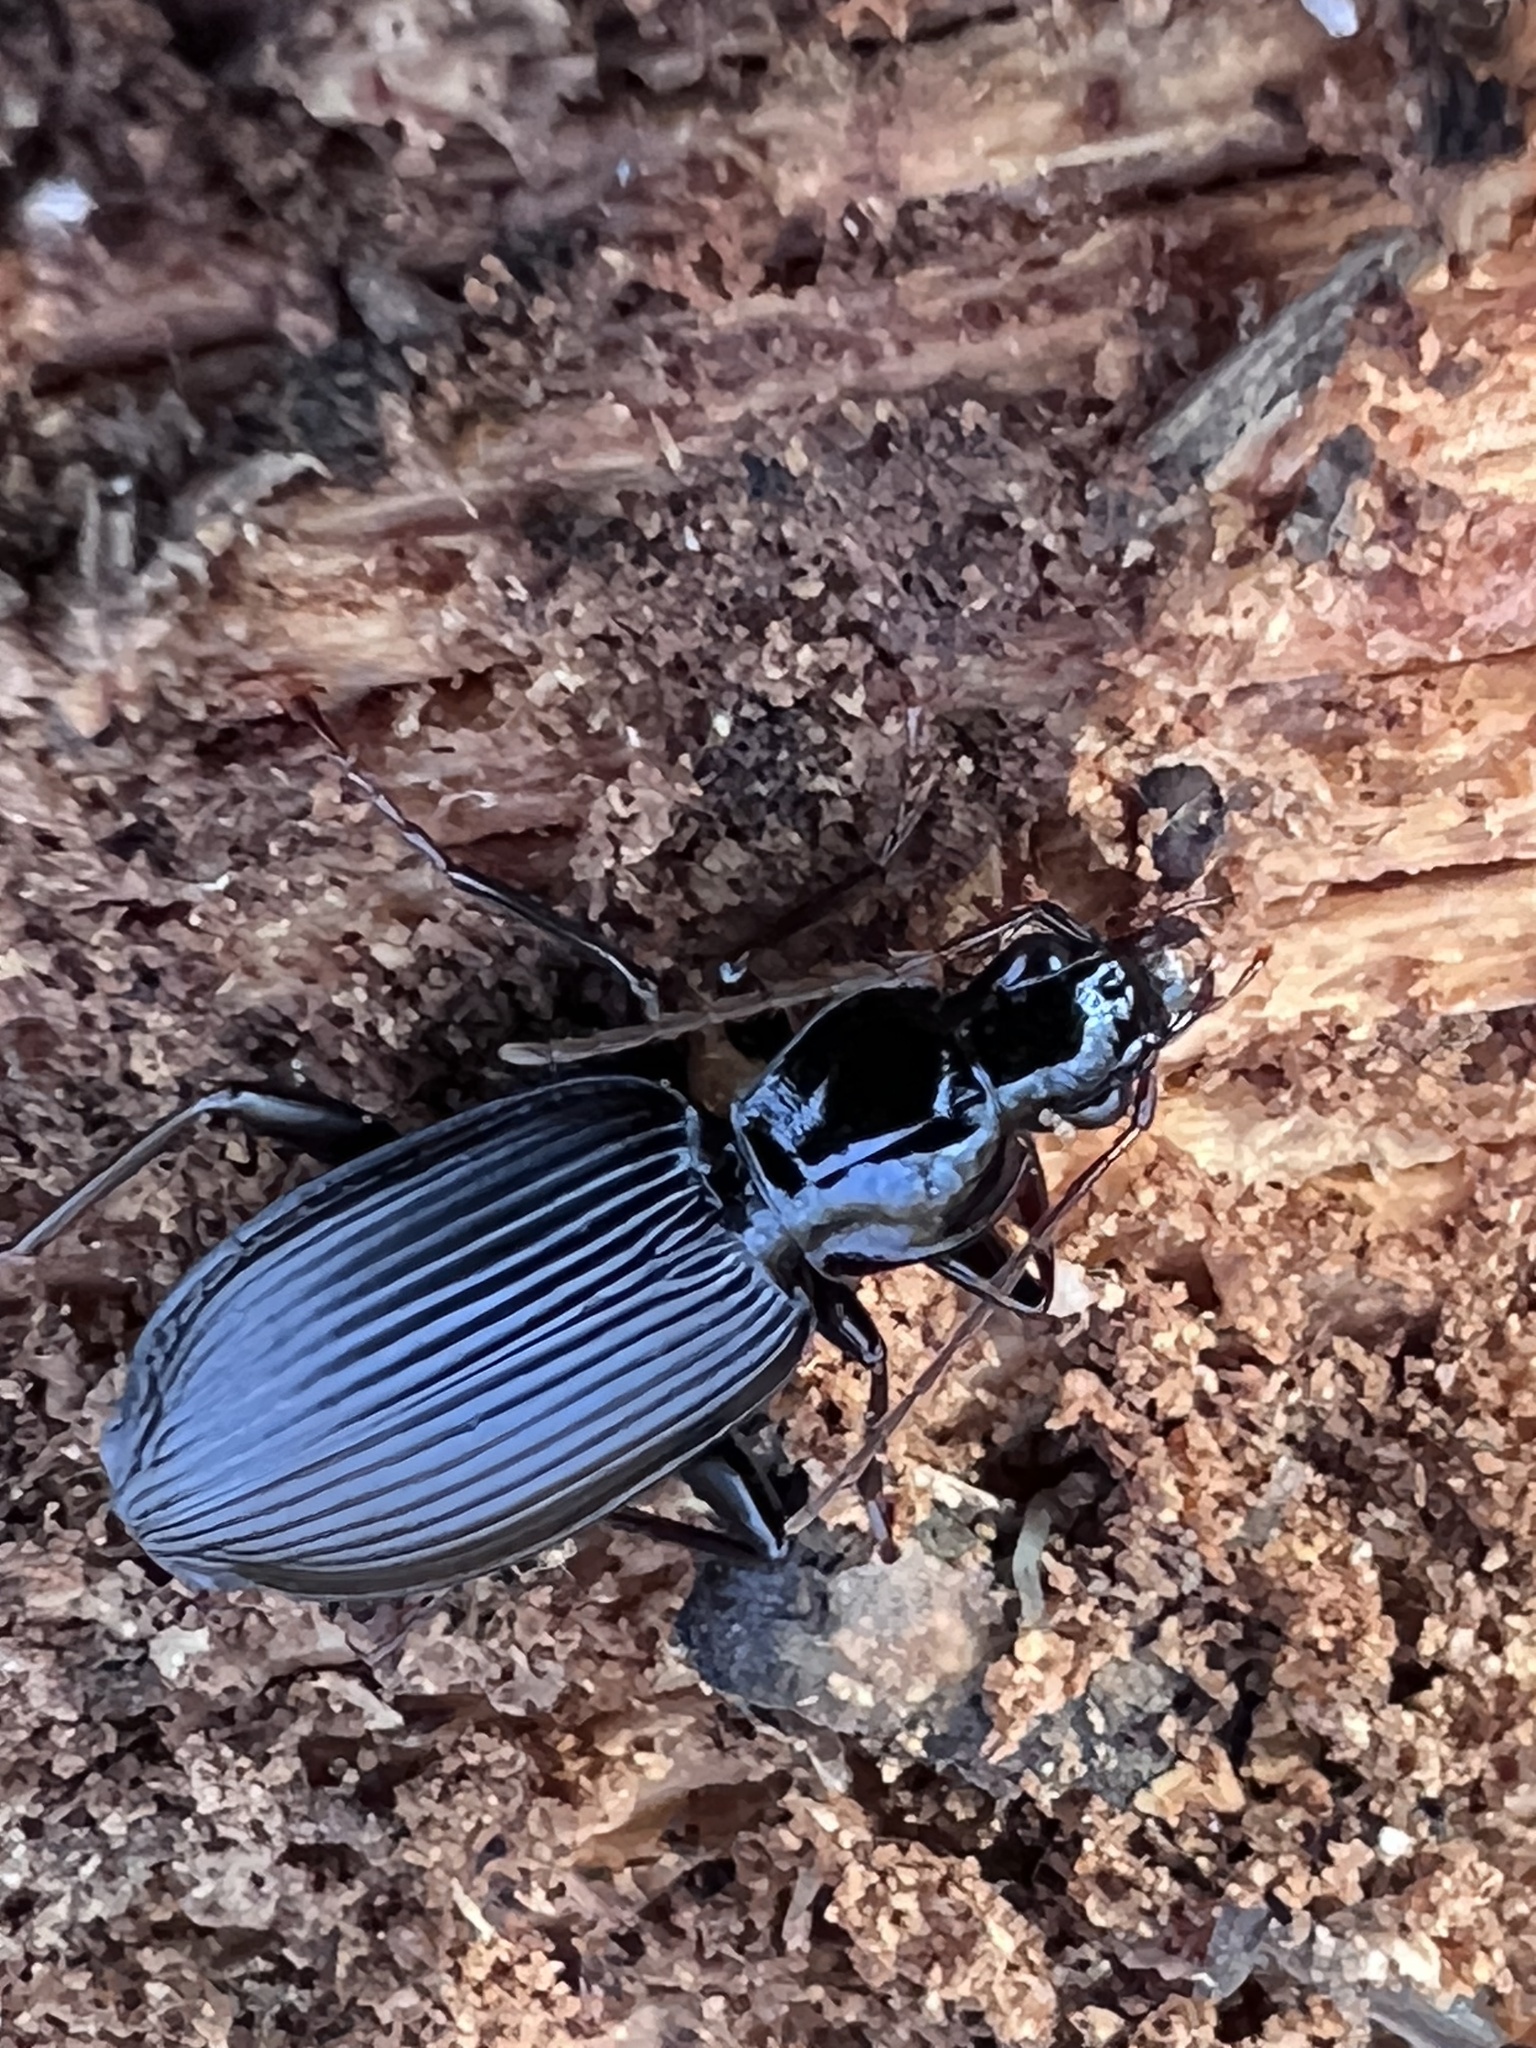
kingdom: Animalia
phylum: Arthropoda
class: Insecta
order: Coleoptera
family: Carabidae
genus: Platynus
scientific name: Platynus decentis
